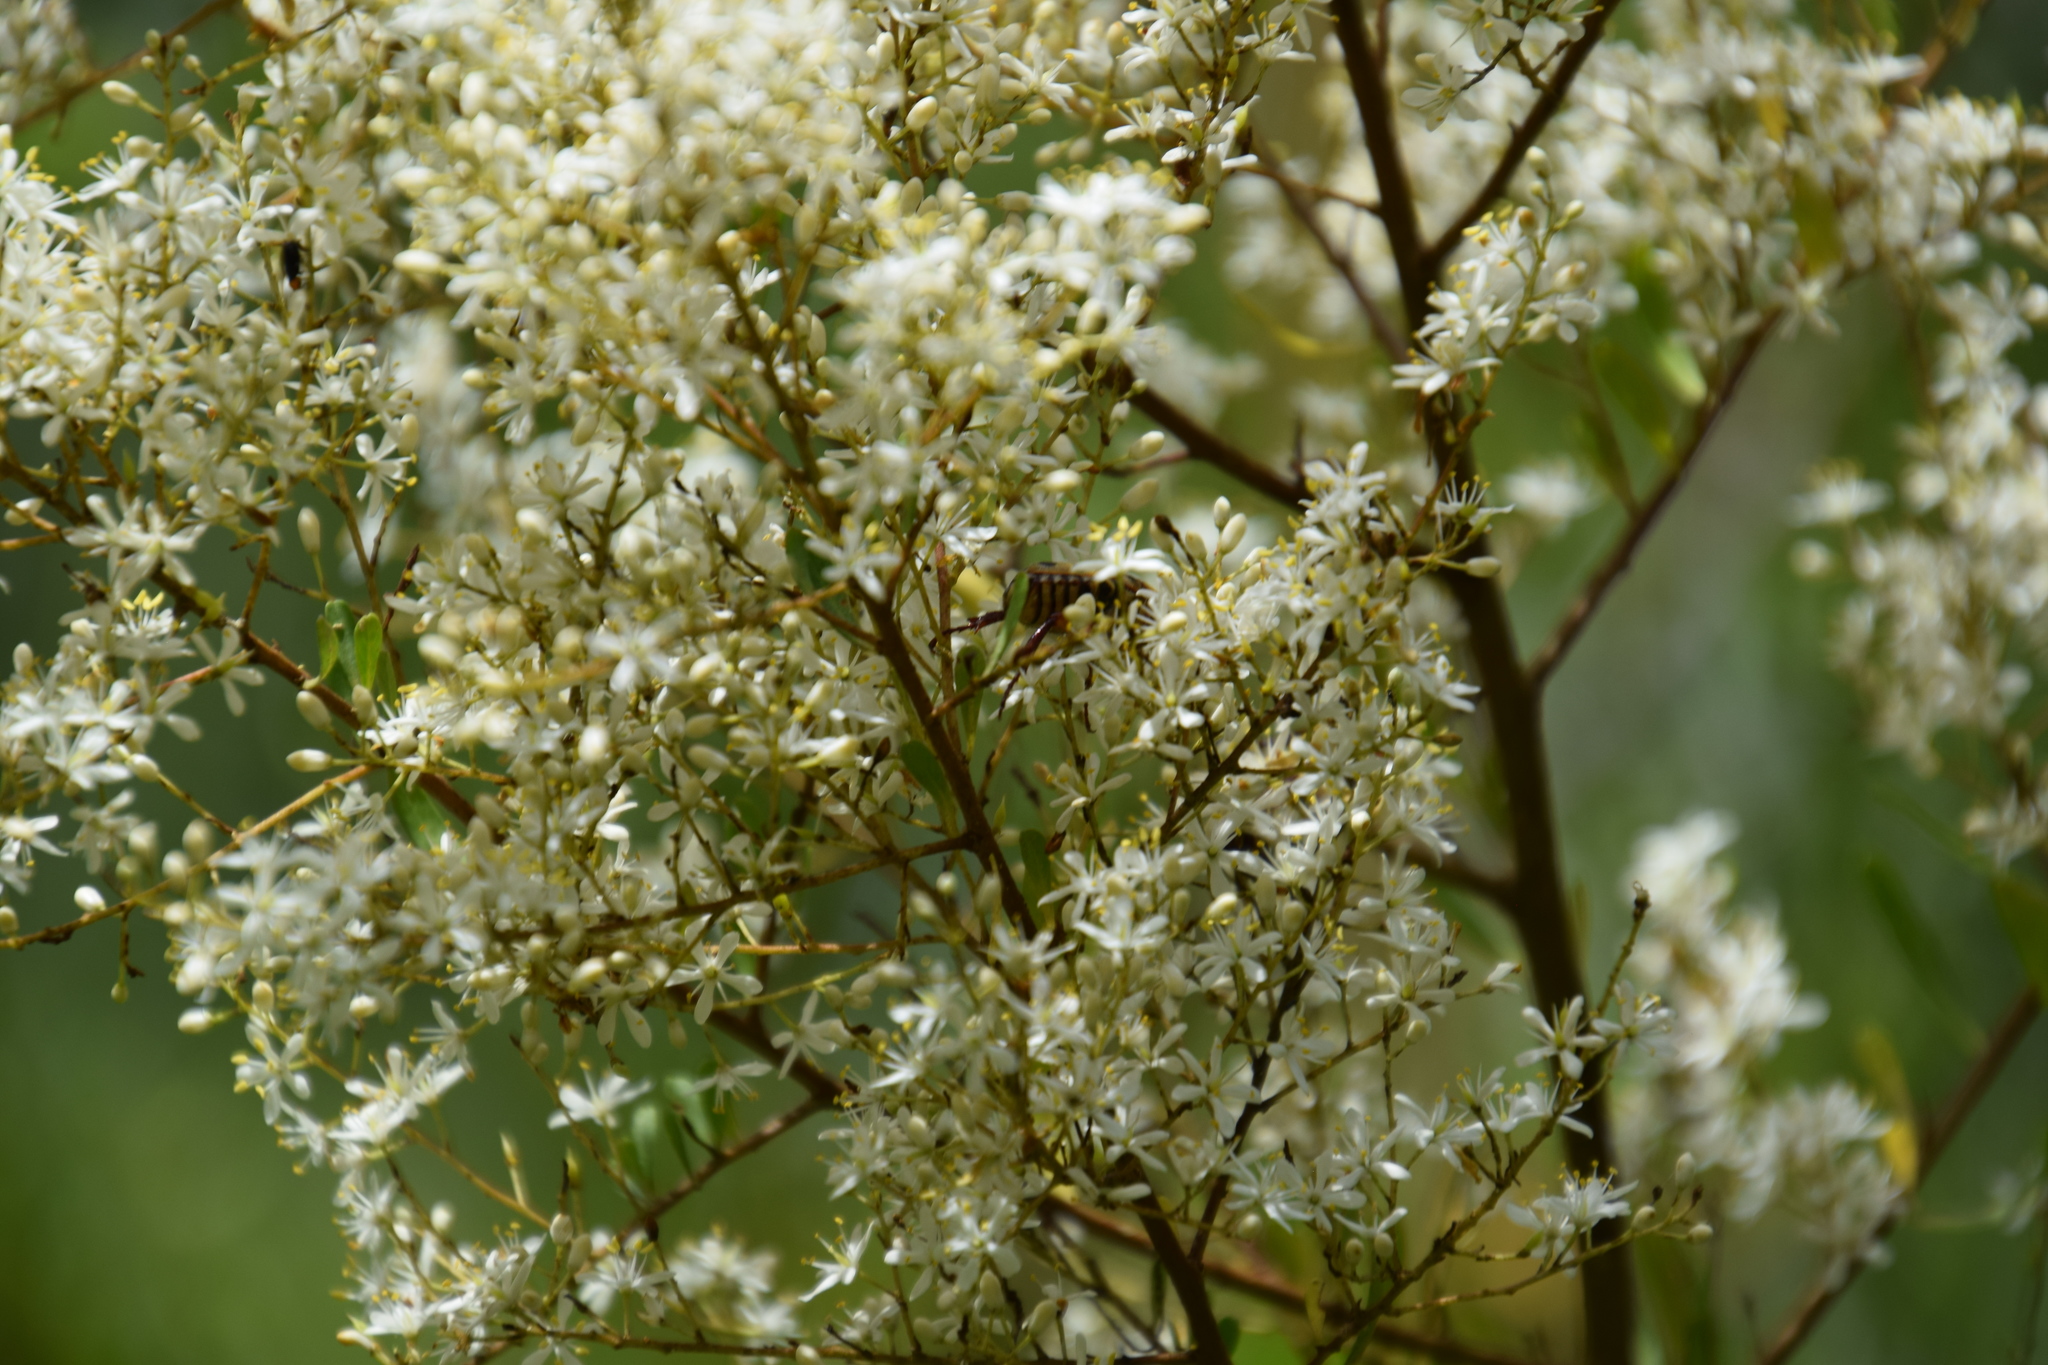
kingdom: Animalia
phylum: Arthropoda
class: Insecta
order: Coleoptera
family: Scarabaeidae
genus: Neorrhina
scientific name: Neorrhina punctatum
